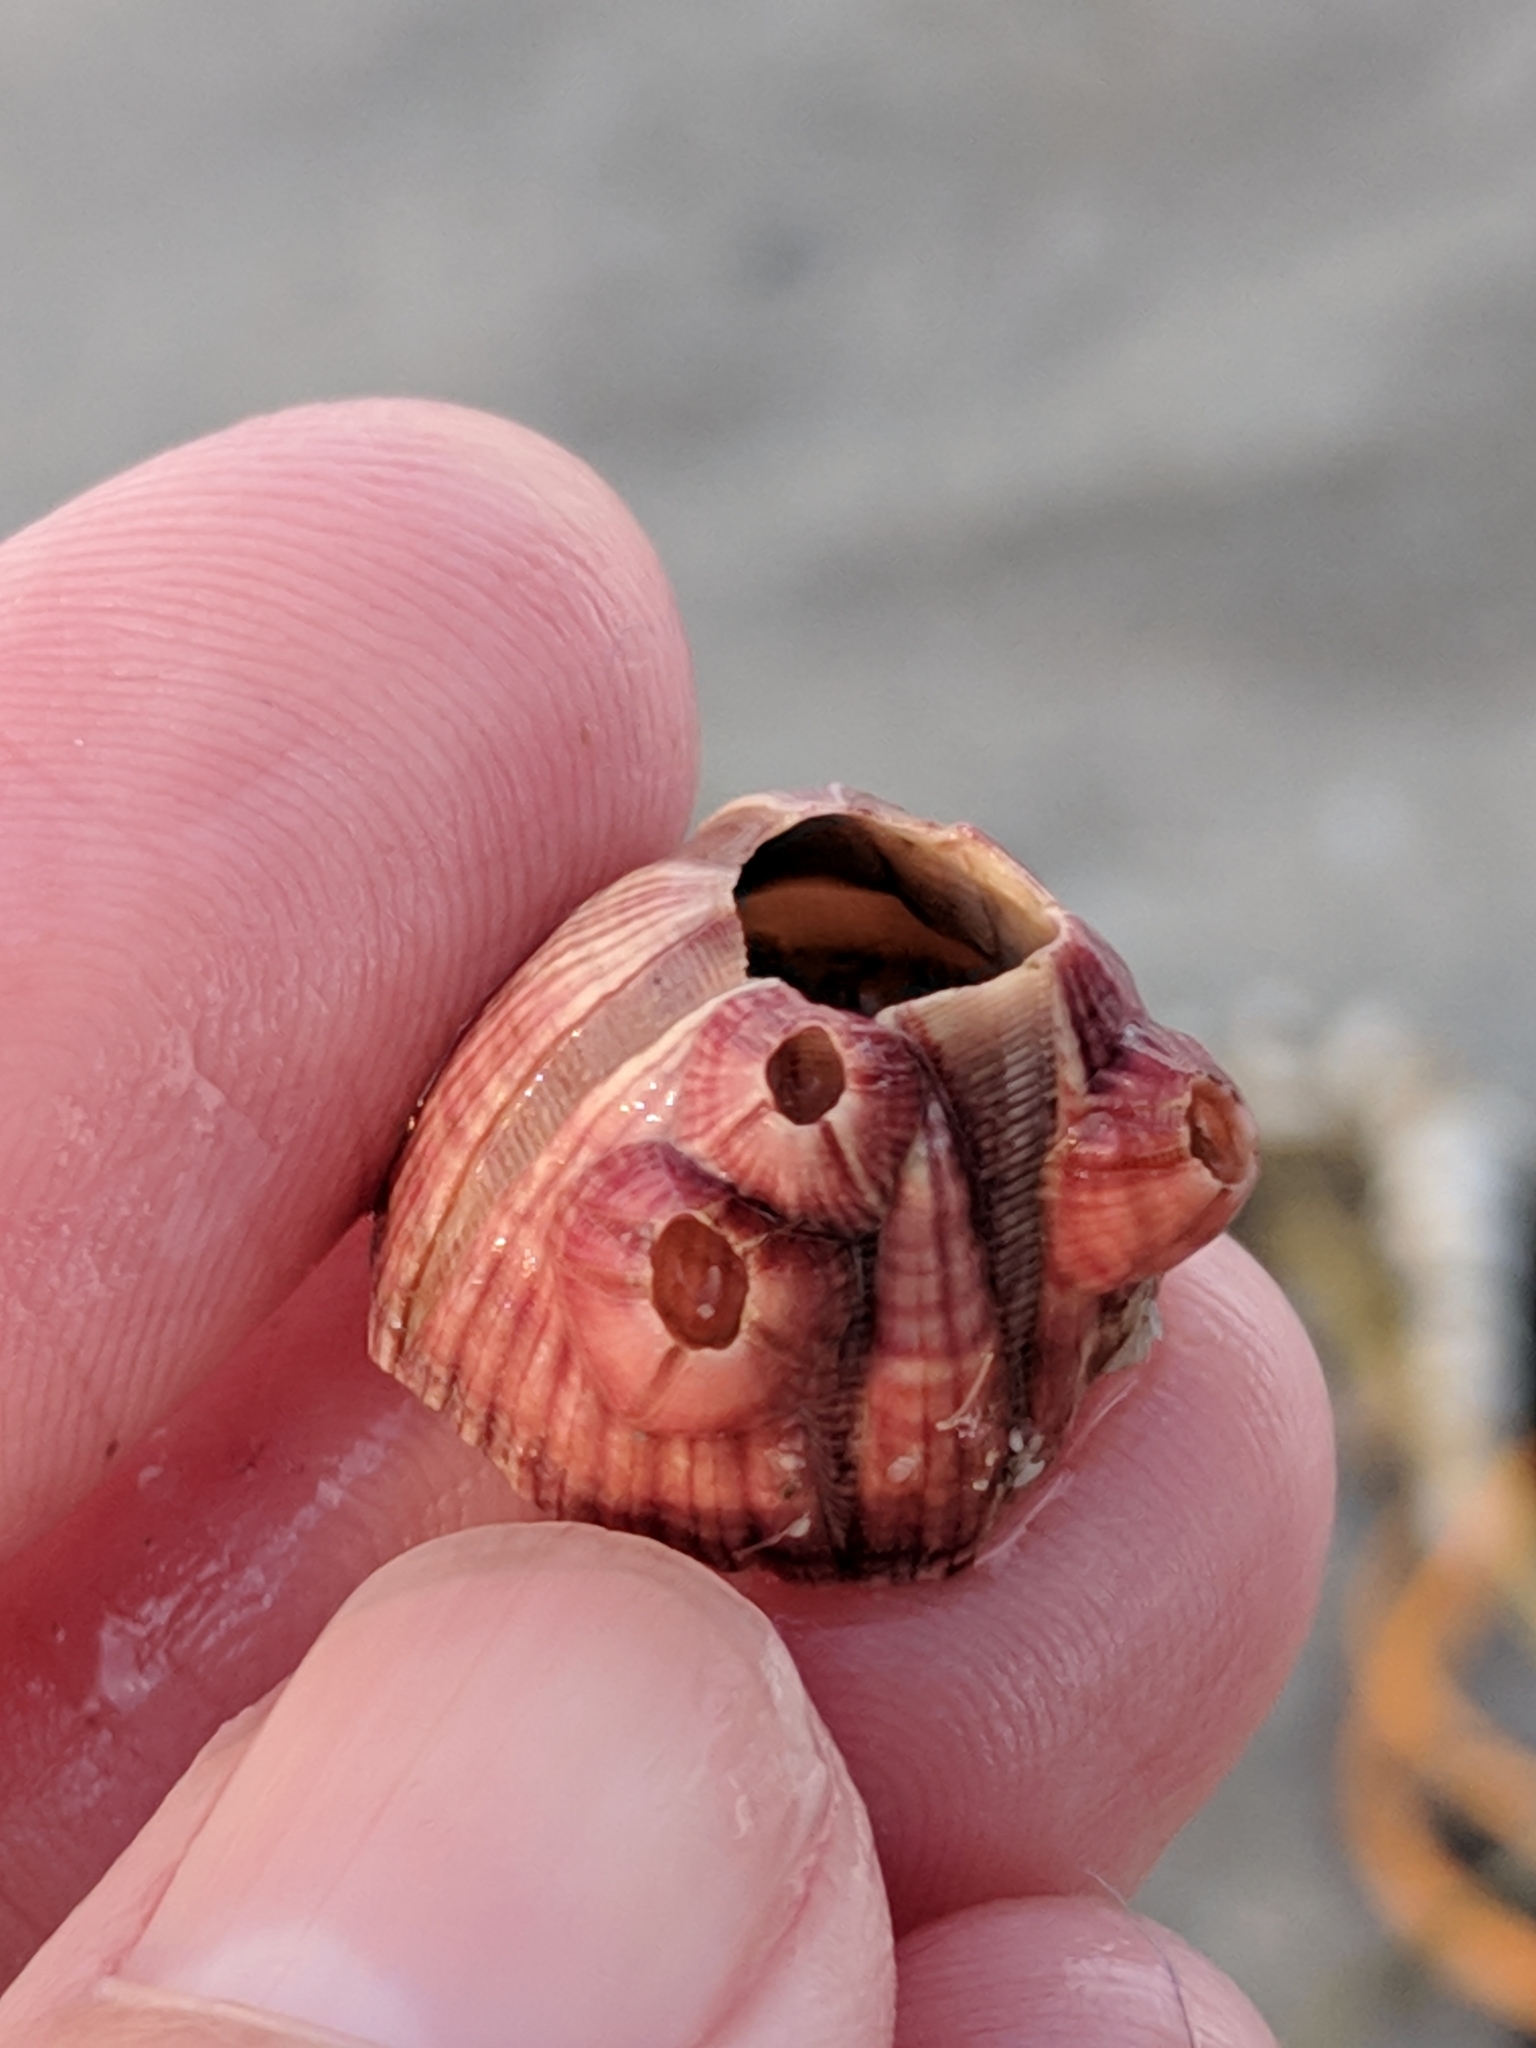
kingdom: Animalia
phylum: Arthropoda
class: Maxillopoda
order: Sessilia
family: Balanidae
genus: Megabalanus
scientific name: Megabalanus tintinnabulum
